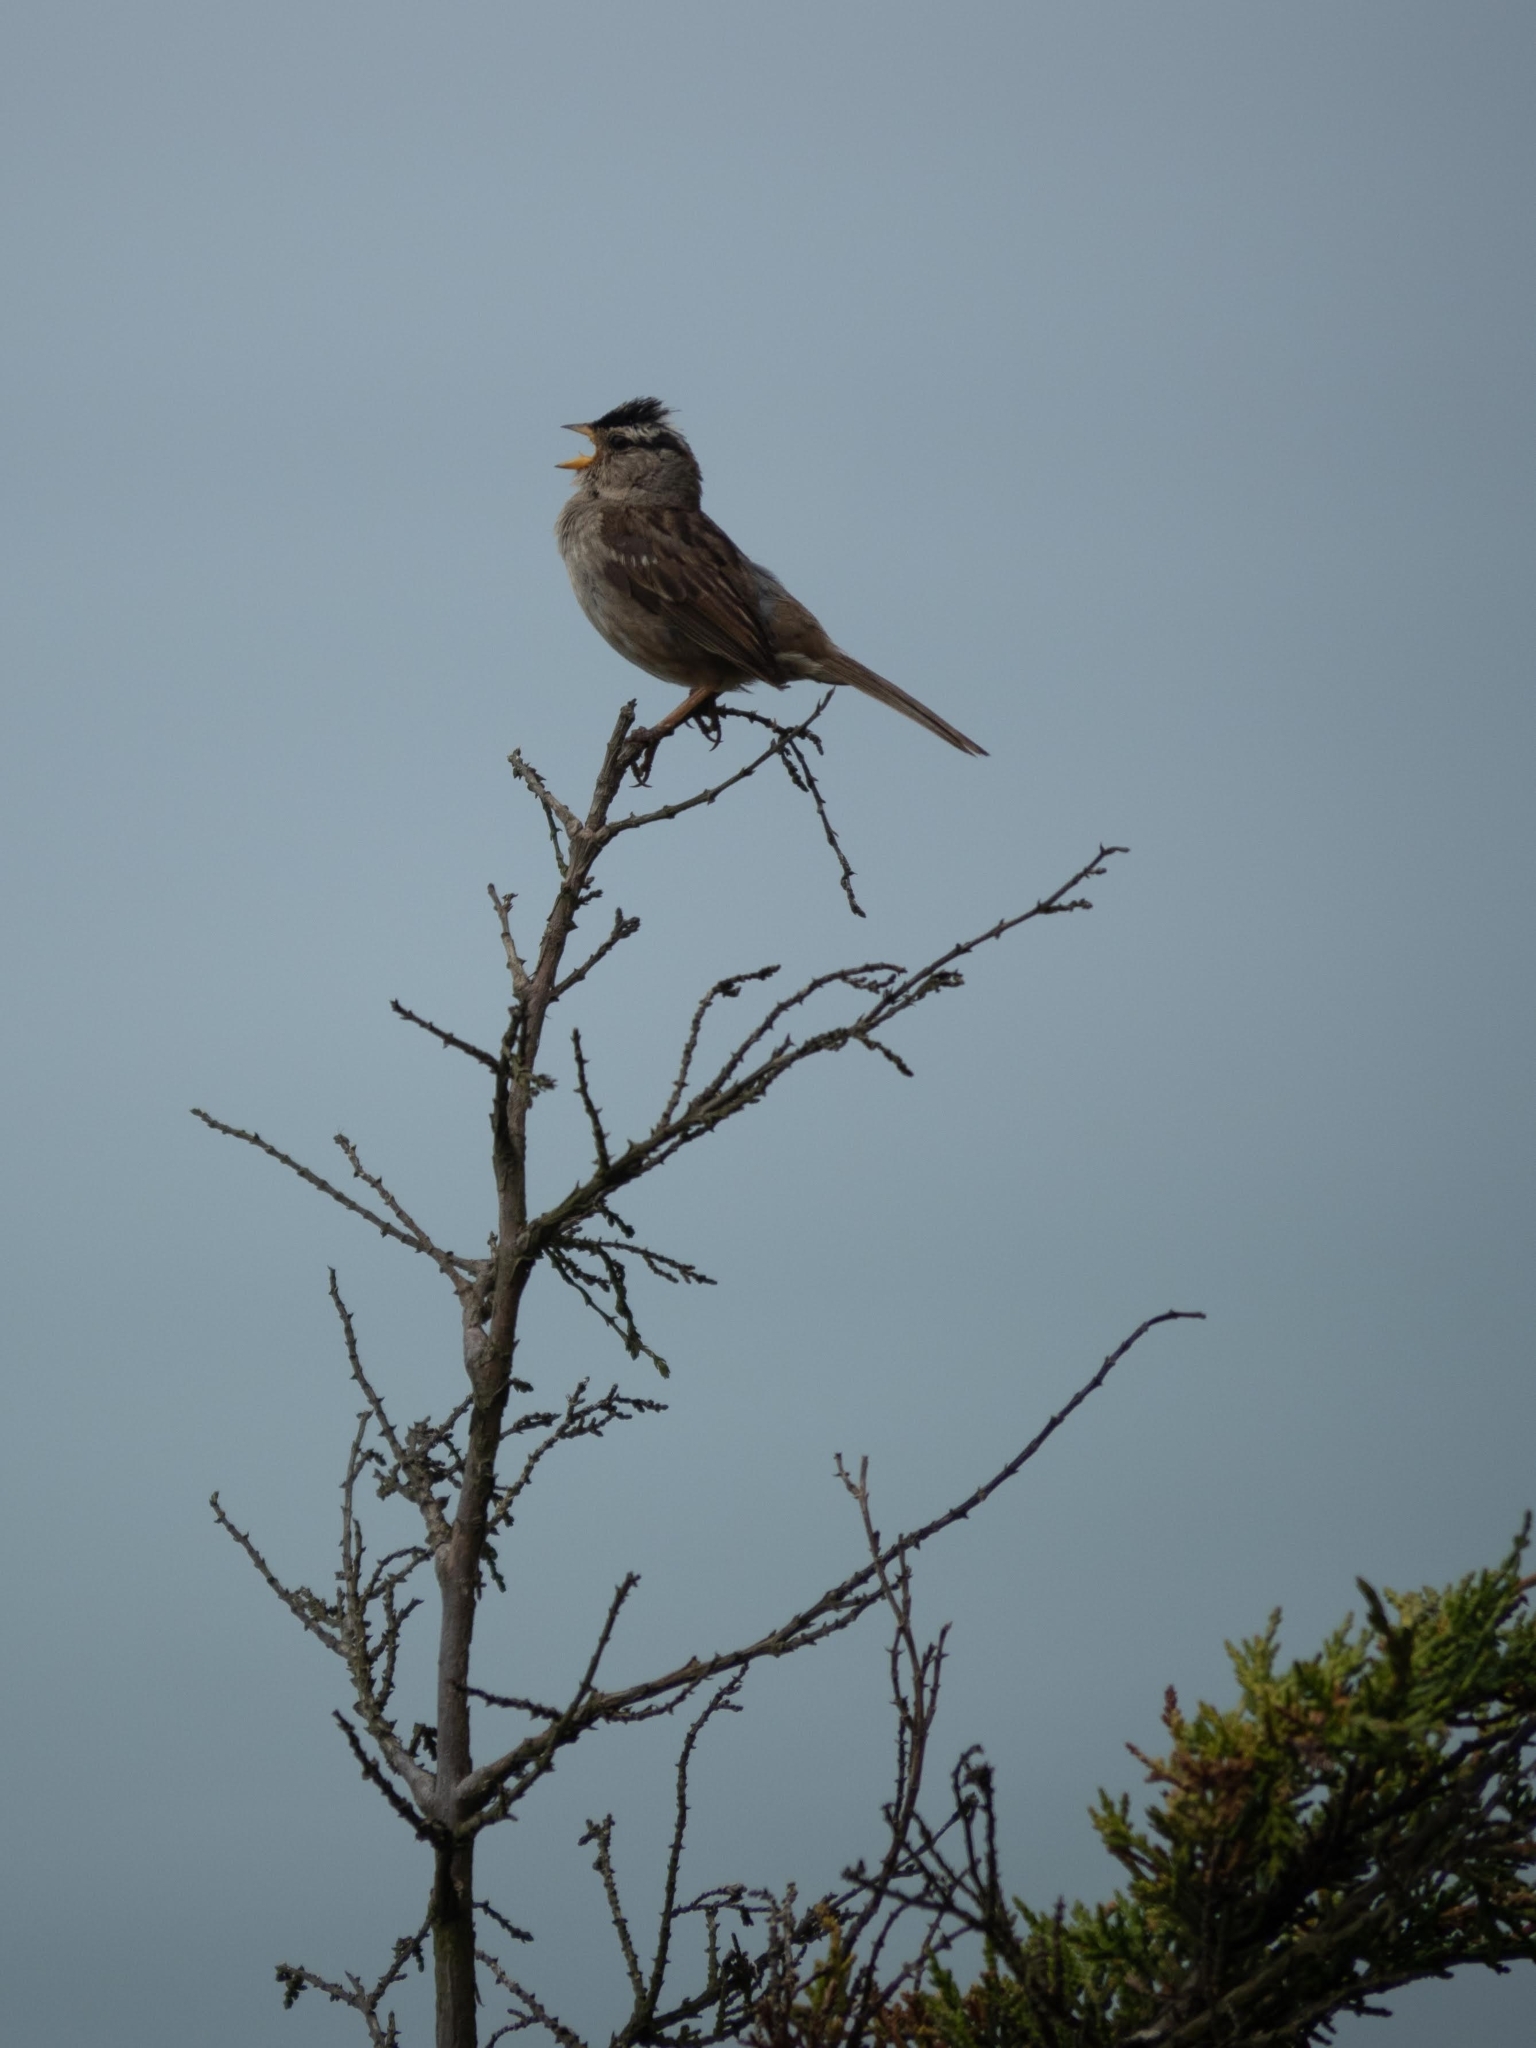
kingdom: Animalia
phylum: Chordata
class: Aves
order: Passeriformes
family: Passerellidae
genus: Zonotrichia
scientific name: Zonotrichia leucophrys
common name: White-crowned sparrow
